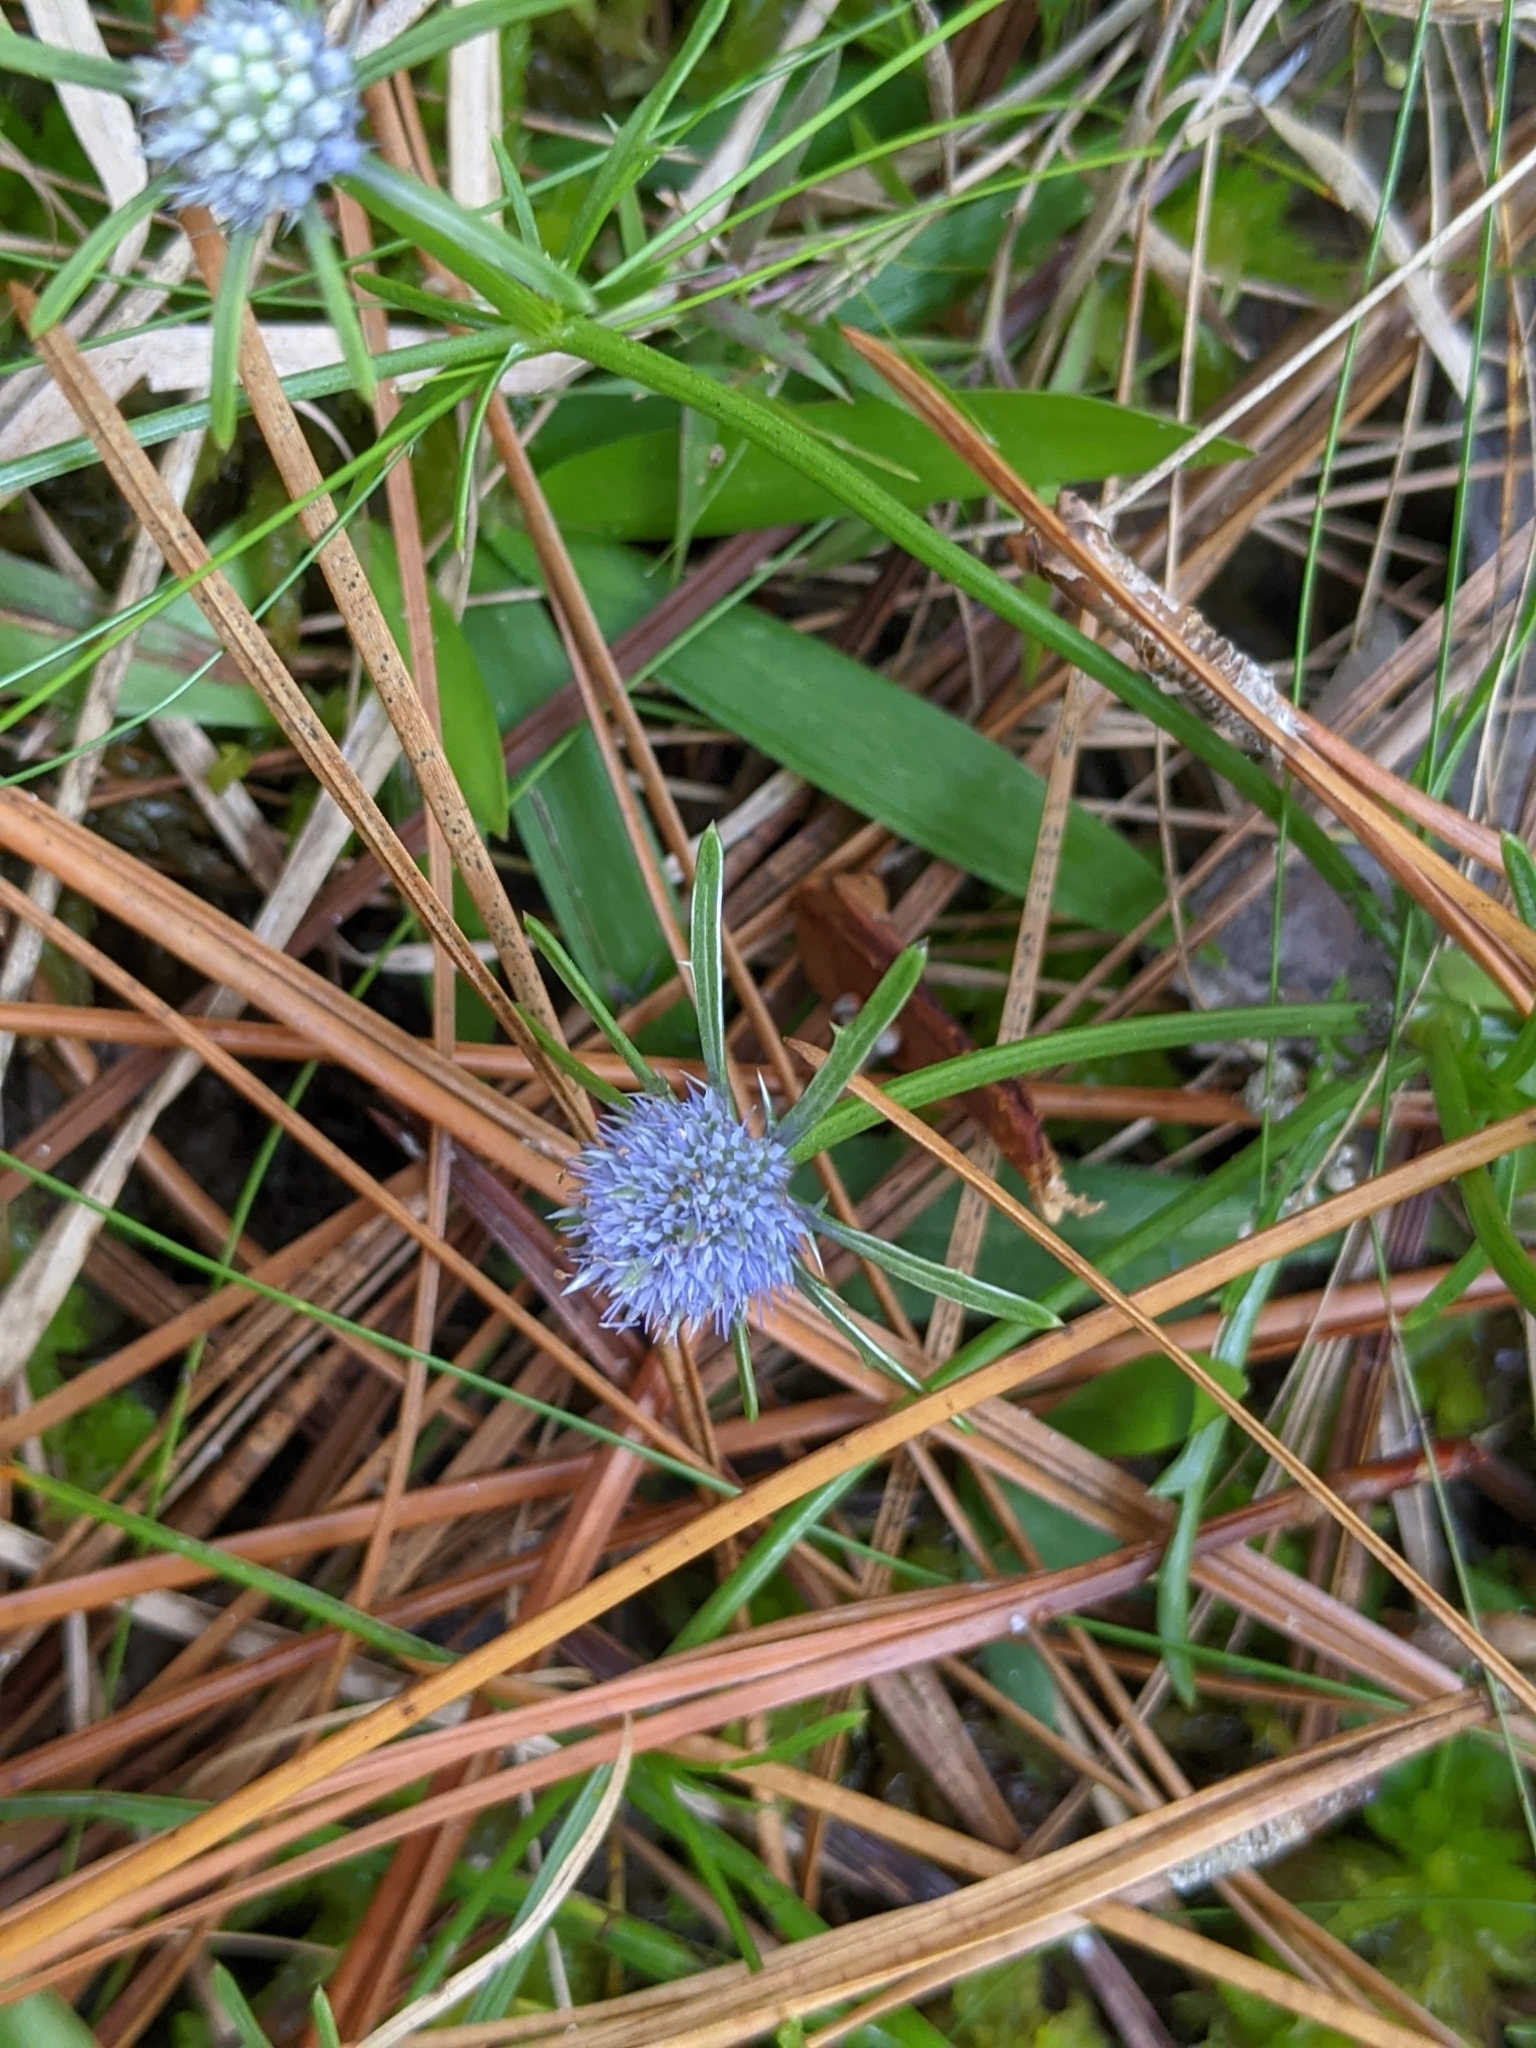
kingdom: Plantae
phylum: Tracheophyta
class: Magnoliopsida
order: Apiales
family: Apiaceae
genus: Eryngium
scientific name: Eryngium integrifolium
